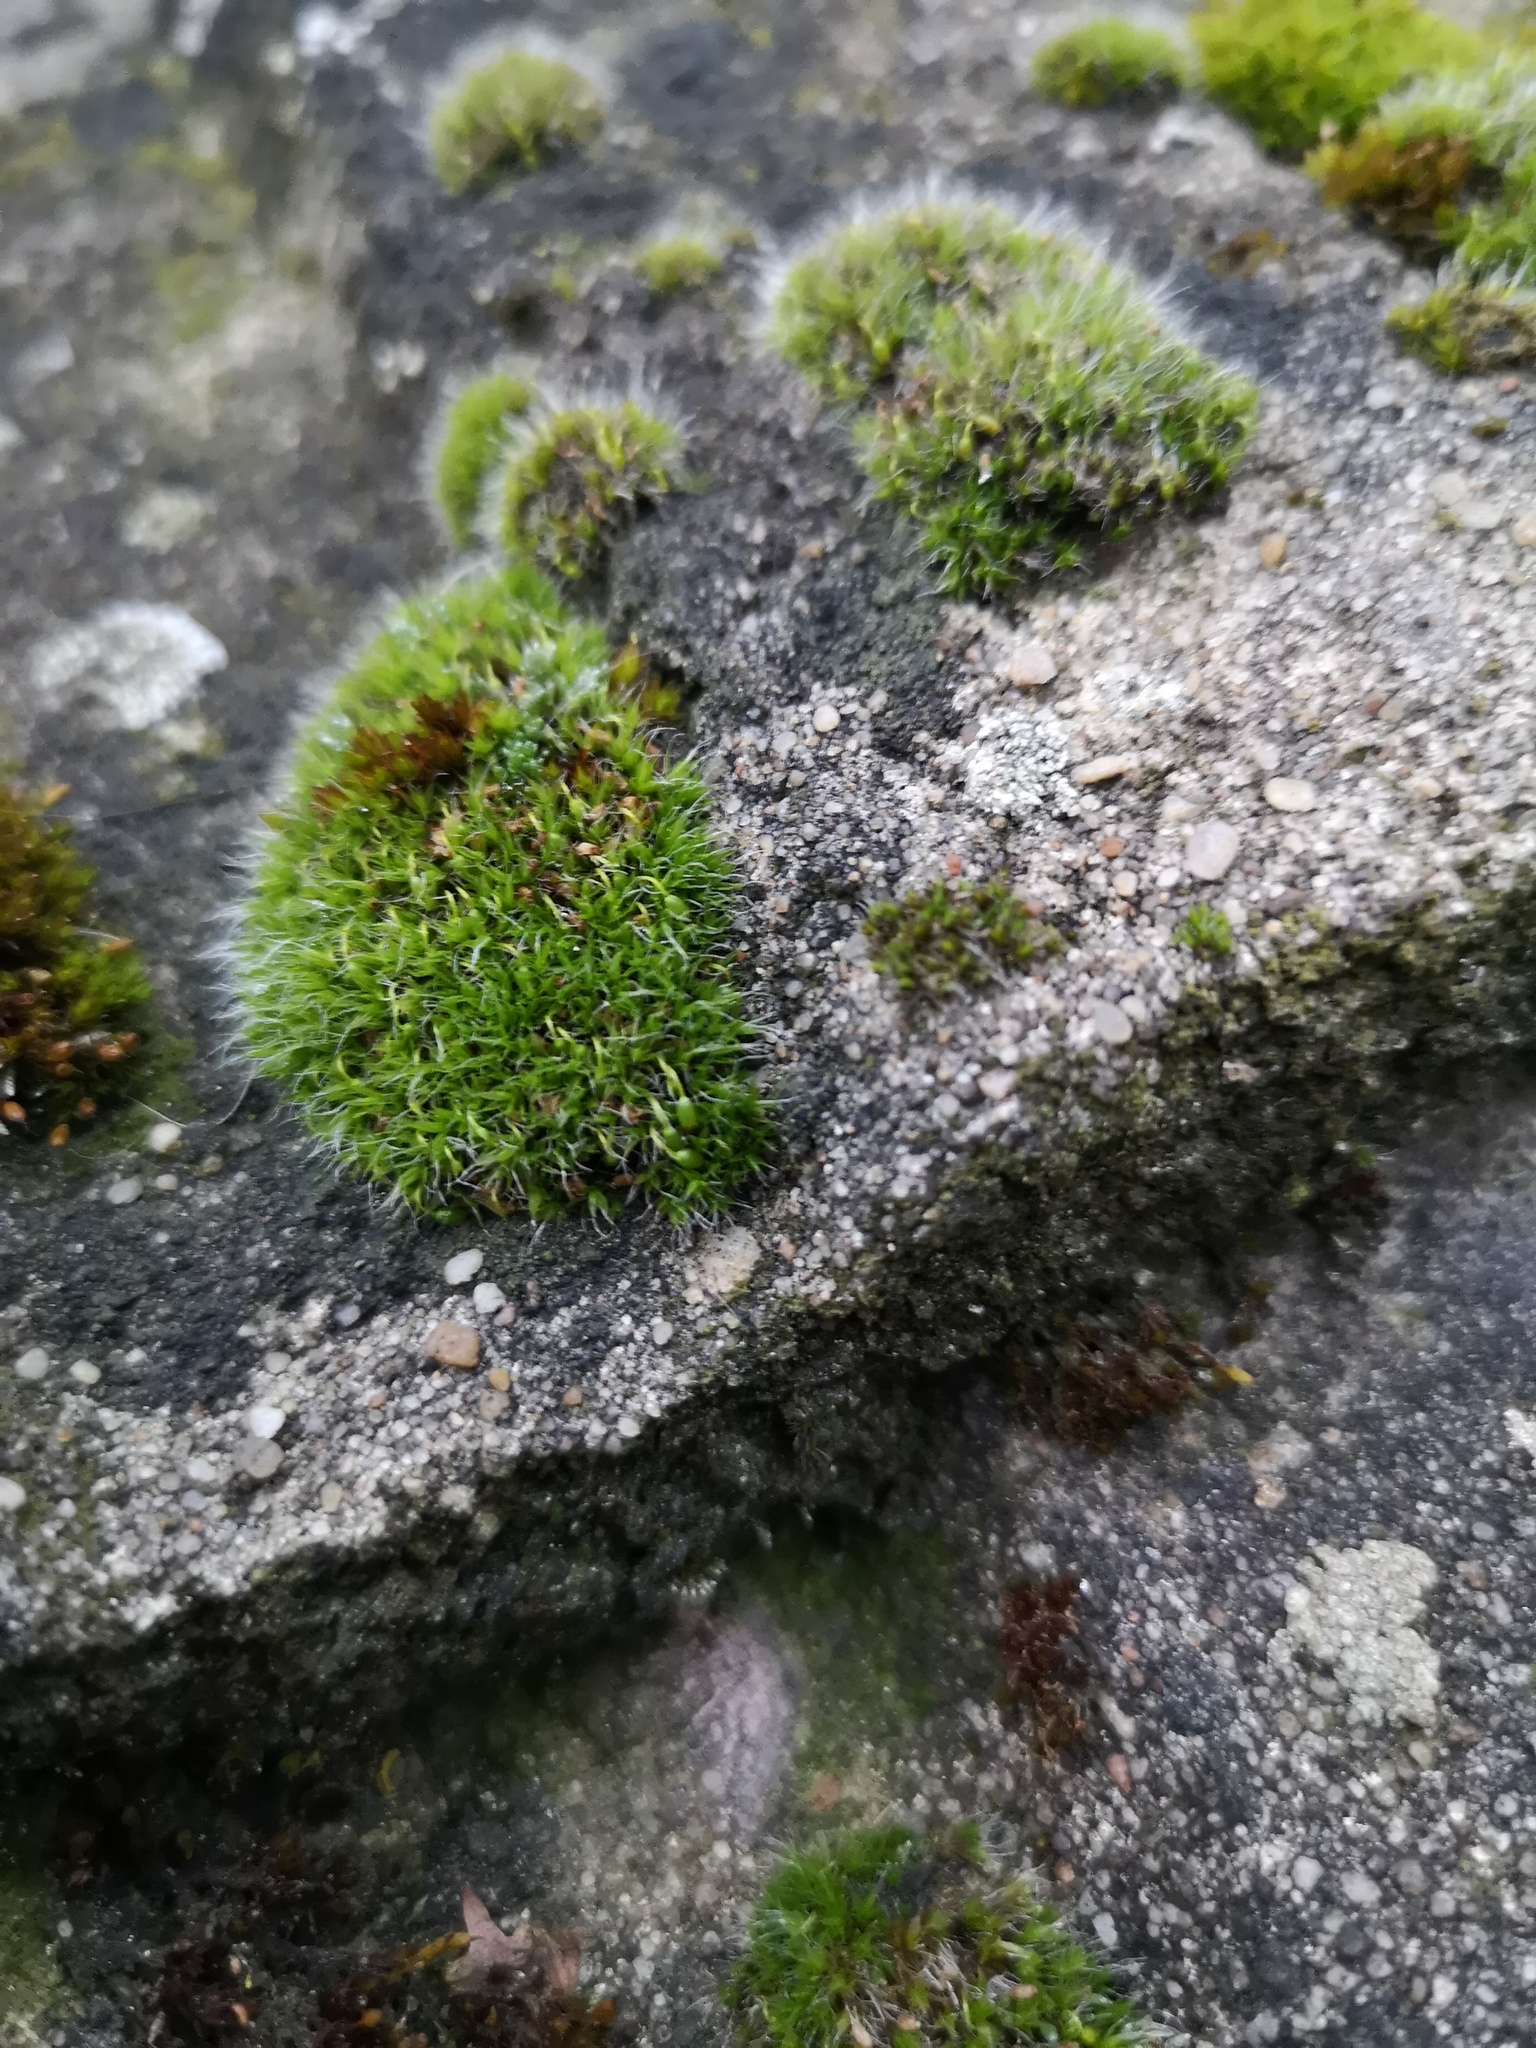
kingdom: Plantae
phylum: Bryophyta
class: Bryopsida
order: Grimmiales
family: Grimmiaceae
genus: Grimmia
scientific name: Grimmia pulvinata
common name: Grey-cushioned grimmia
